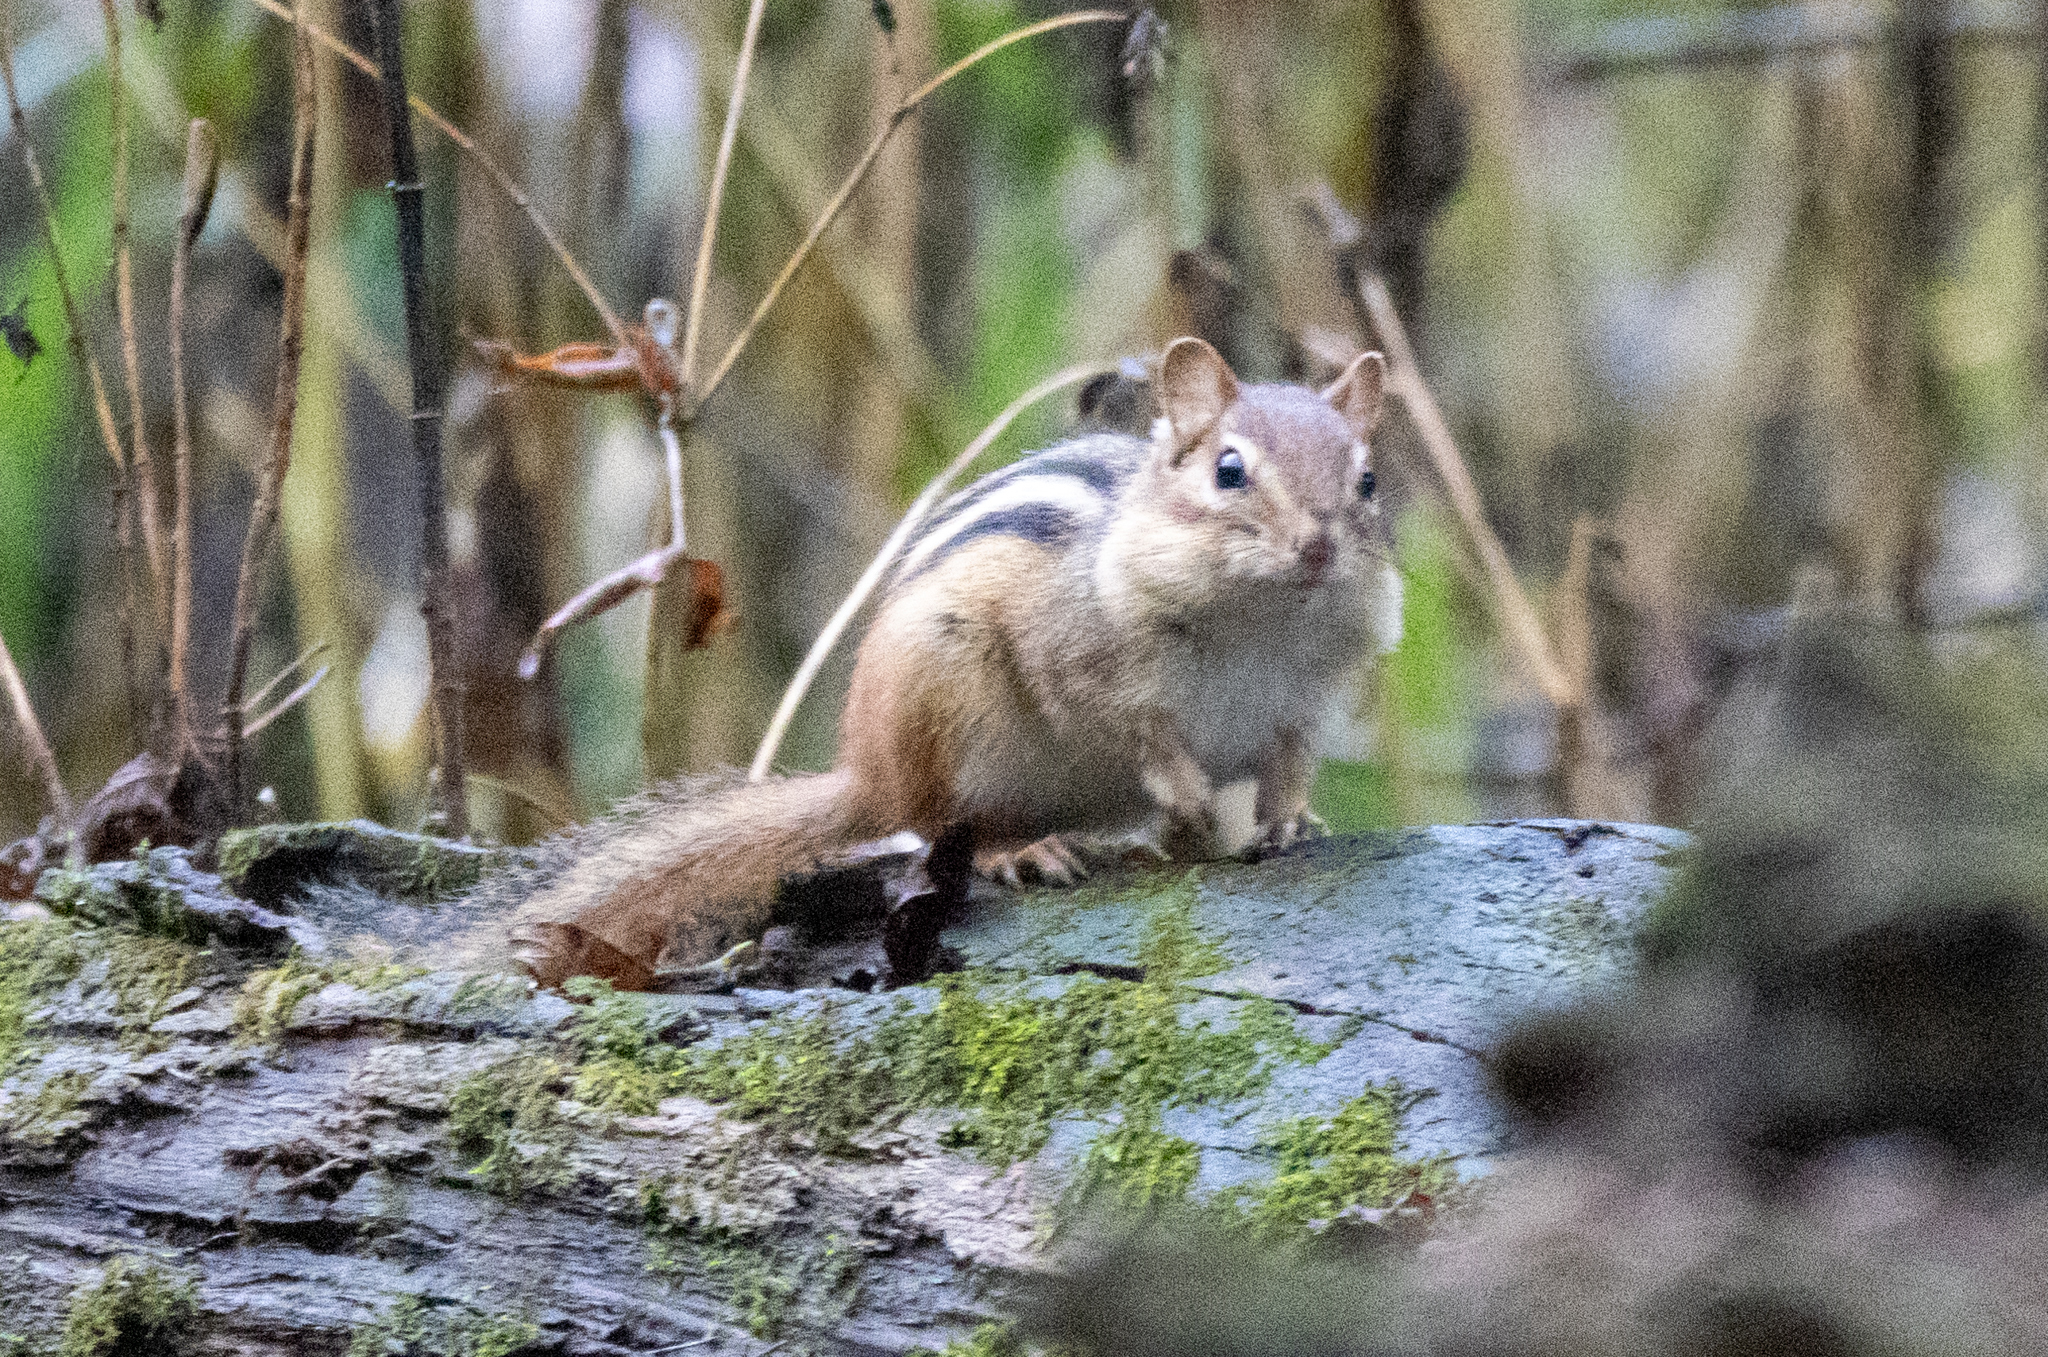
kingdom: Animalia
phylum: Chordata
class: Mammalia
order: Rodentia
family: Sciuridae
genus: Tamias
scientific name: Tamias striatus
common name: Eastern chipmunk
